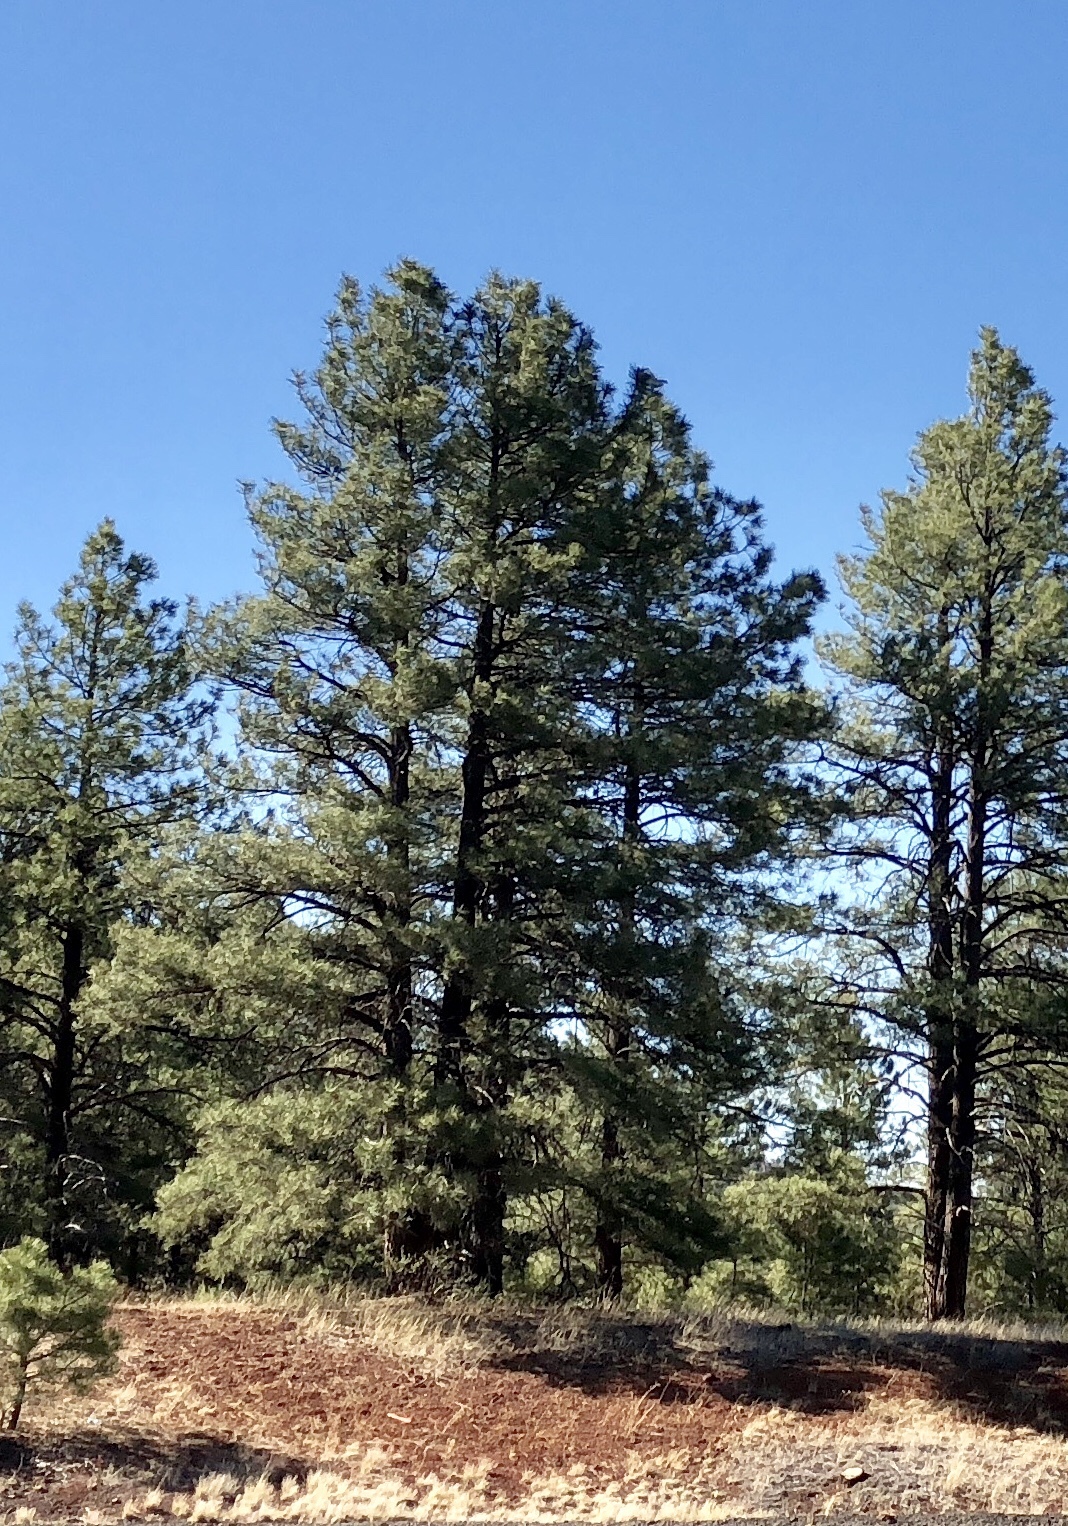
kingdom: Plantae
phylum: Tracheophyta
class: Pinopsida
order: Pinales
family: Pinaceae
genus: Pinus
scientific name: Pinus ponderosa
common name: Western yellow-pine
